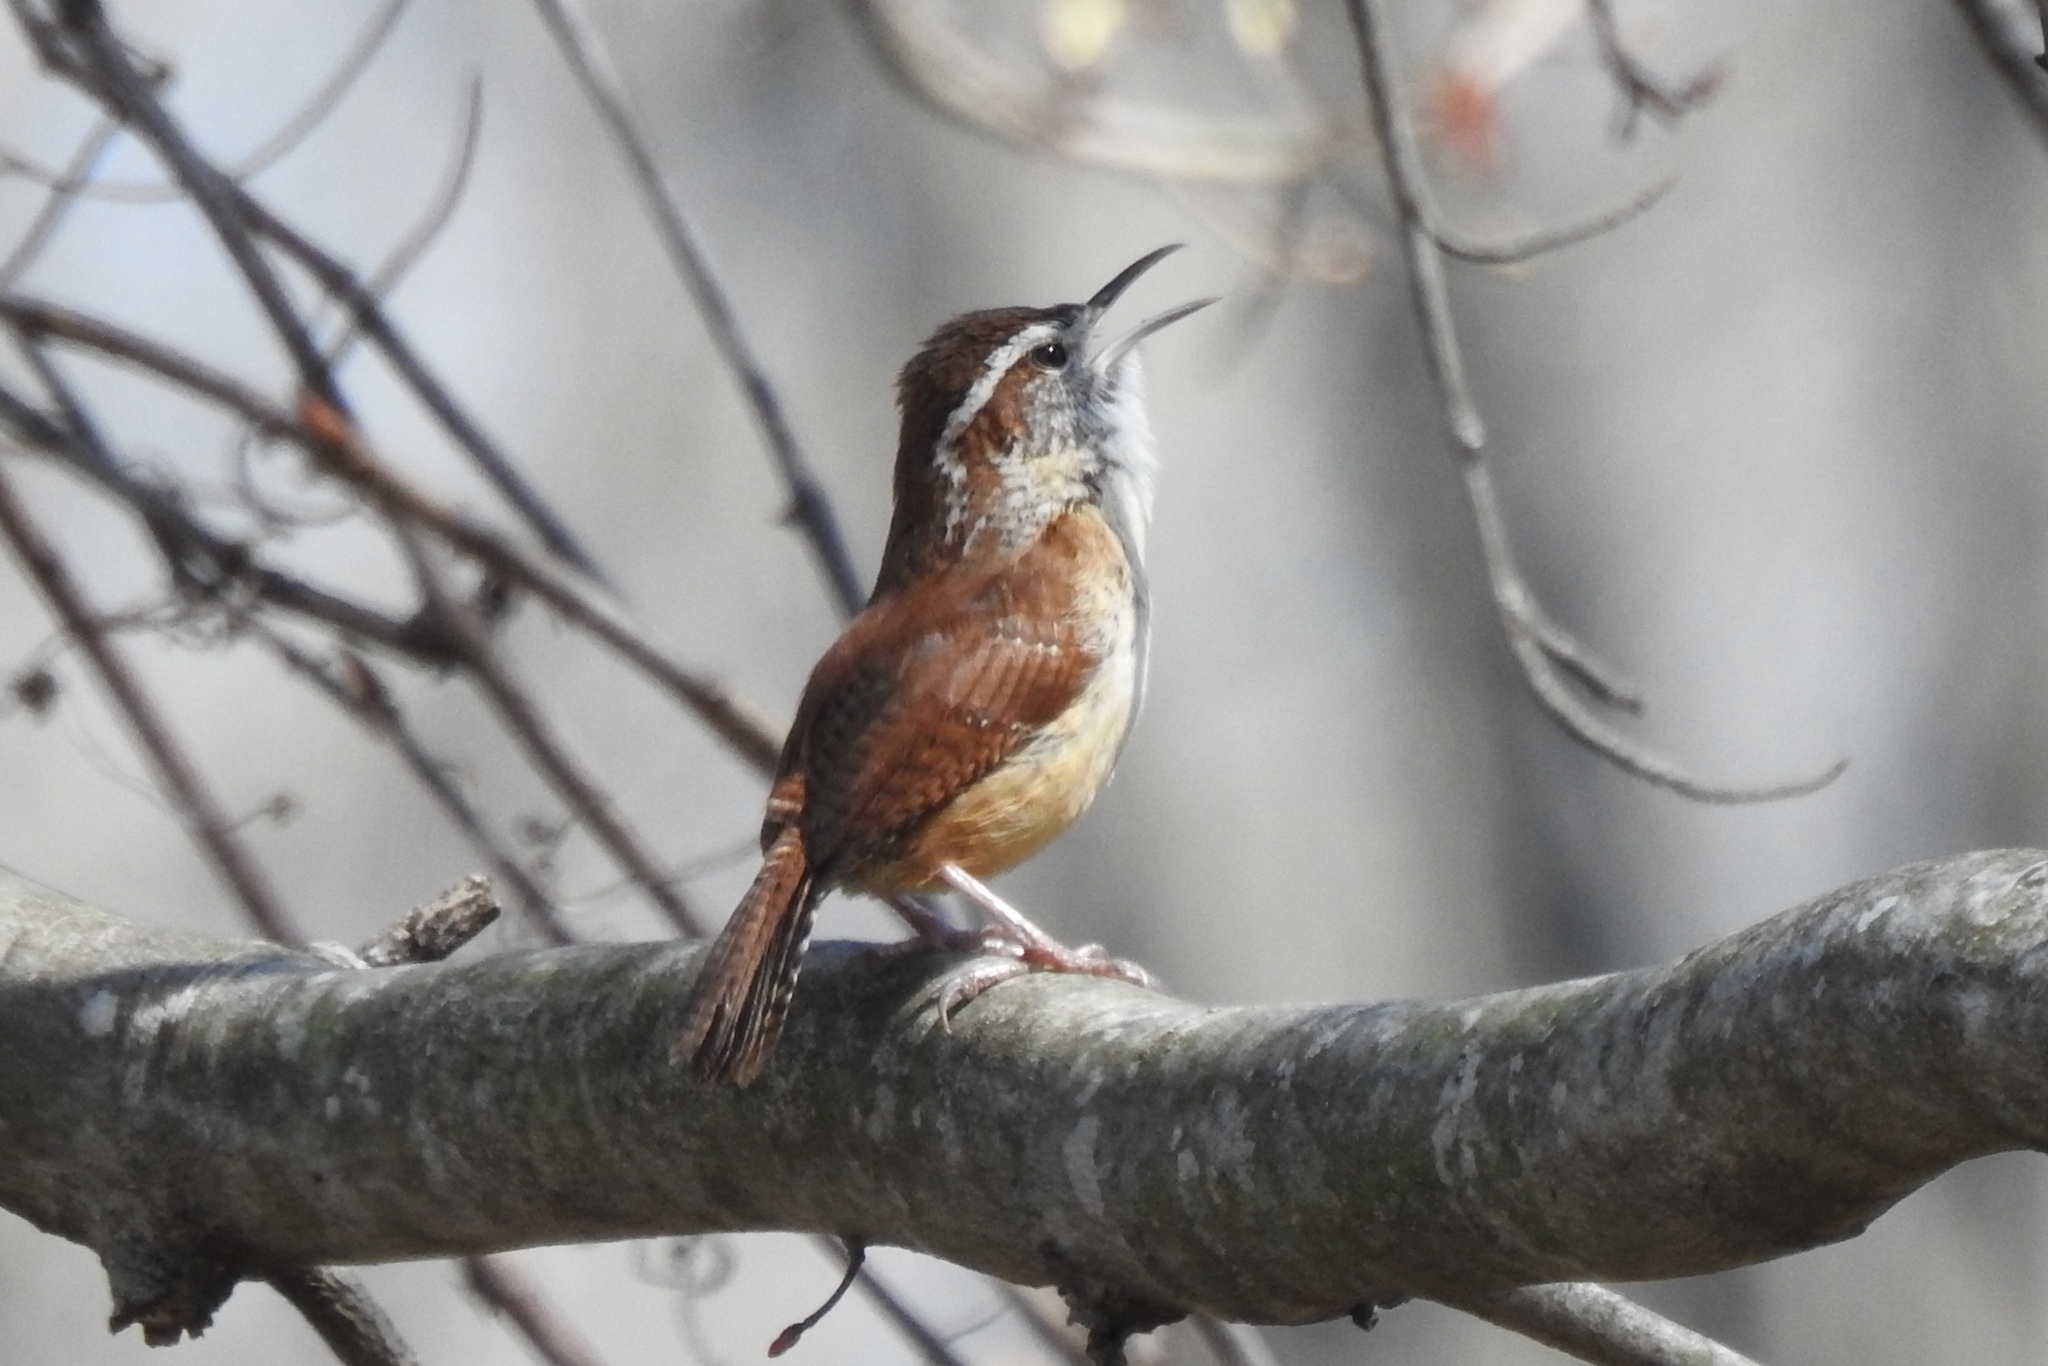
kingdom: Animalia
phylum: Chordata
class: Aves
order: Passeriformes
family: Troglodytidae
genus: Thryothorus
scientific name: Thryothorus ludovicianus
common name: Carolina wren
